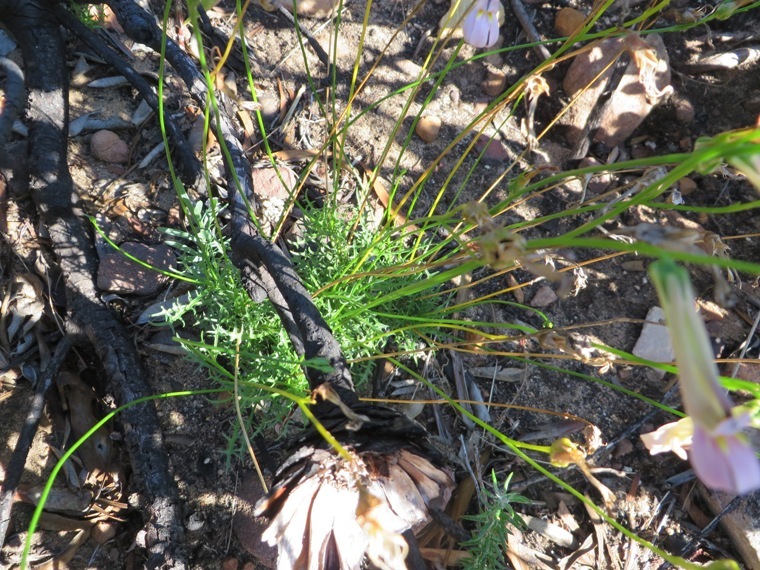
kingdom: Plantae
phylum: Tracheophyta
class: Magnoliopsida
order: Asterales
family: Campanulaceae
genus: Lobelia
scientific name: Lobelia coronopifolia
